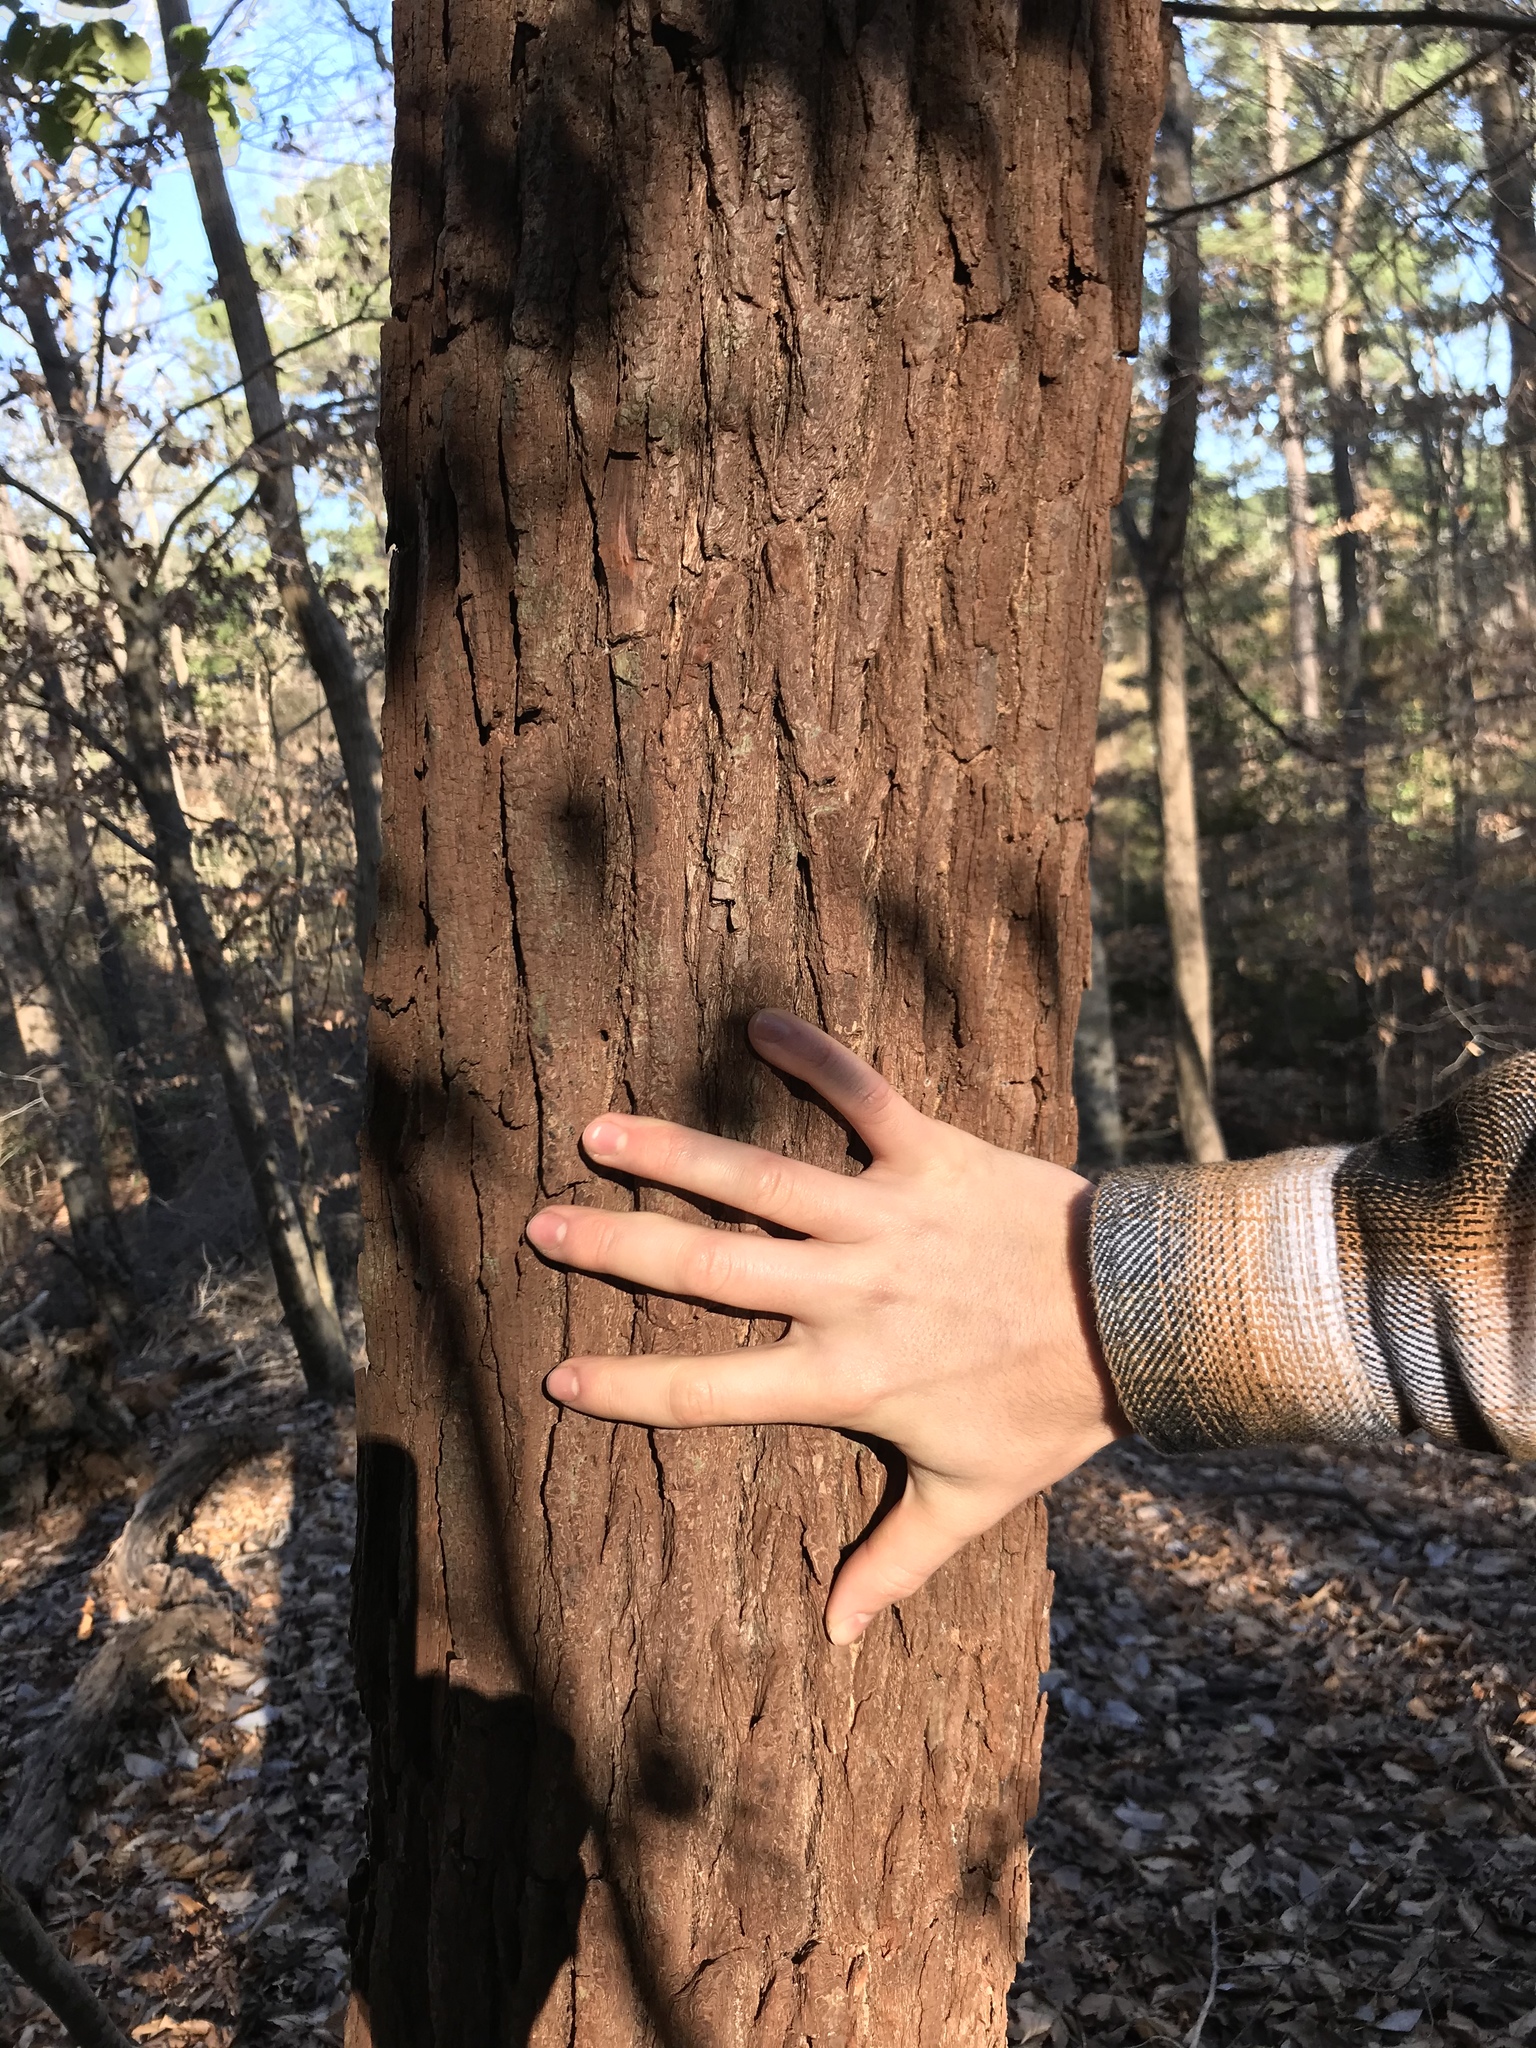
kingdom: Plantae
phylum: Tracheophyta
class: Magnoliopsida
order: Laurales
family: Lauraceae
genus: Sassafras
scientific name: Sassafras albidum
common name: Sassafras
